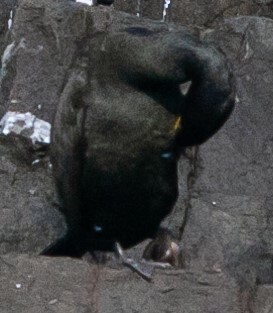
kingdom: Animalia
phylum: Chordata
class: Aves
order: Suliformes
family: Phalacrocoracidae
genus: Phalacrocorax
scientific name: Phalacrocorax aristotelis
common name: European shag
